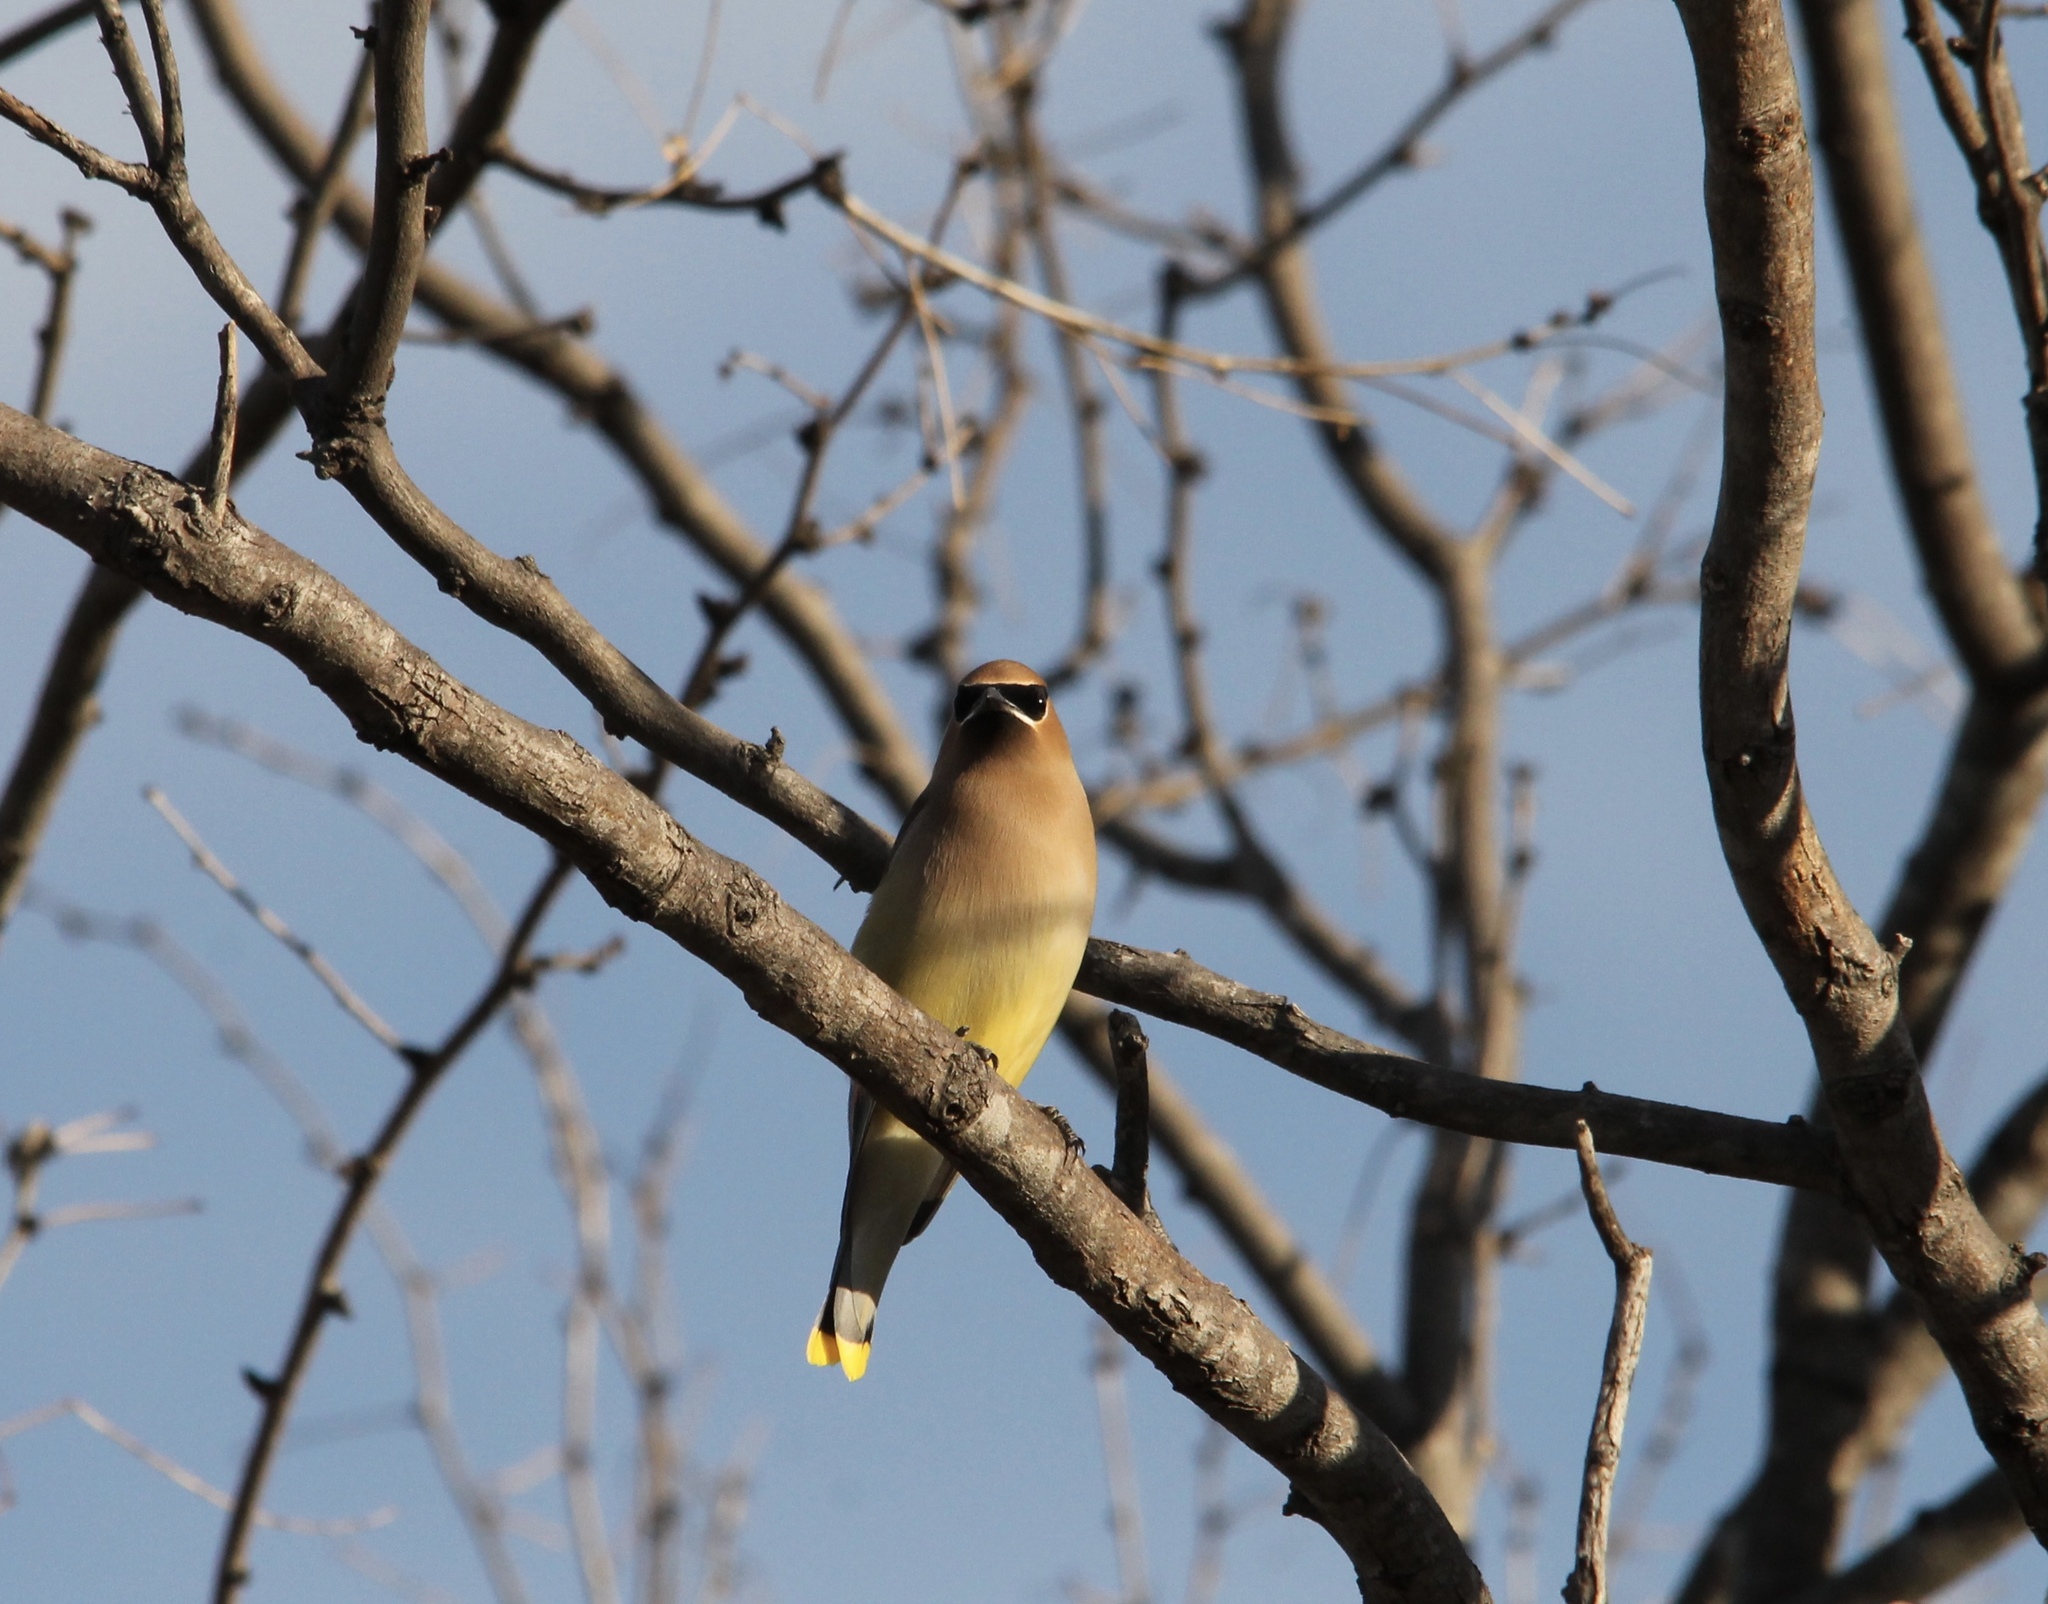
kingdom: Animalia
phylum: Chordata
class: Aves
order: Passeriformes
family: Bombycillidae
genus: Bombycilla
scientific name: Bombycilla cedrorum
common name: Cedar waxwing
